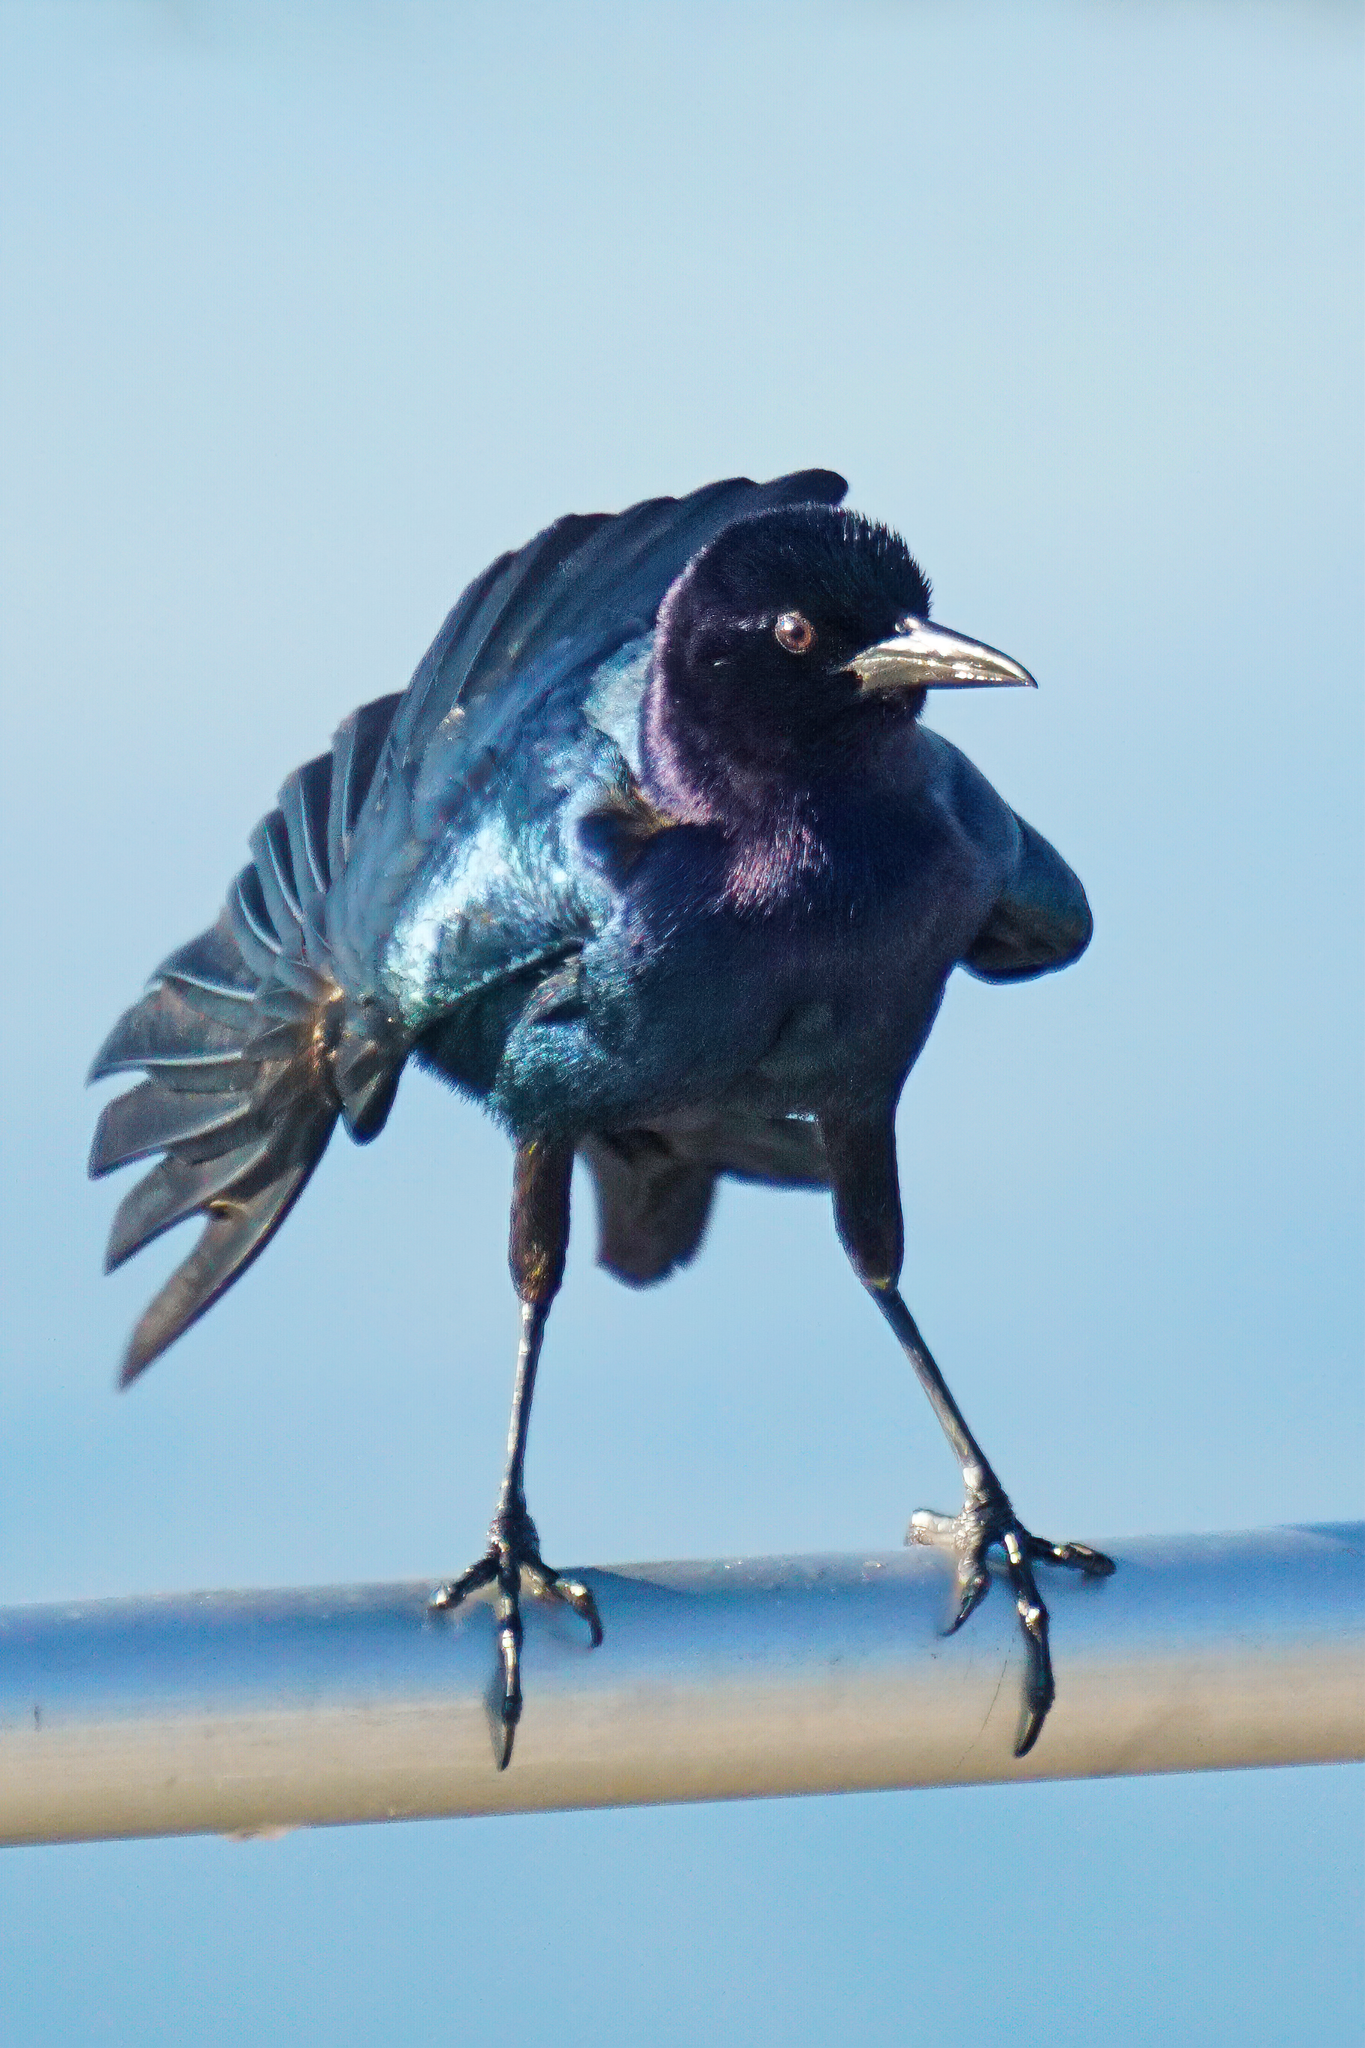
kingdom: Animalia
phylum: Chordata
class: Aves
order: Passeriformes
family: Icteridae
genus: Quiscalus
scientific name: Quiscalus major
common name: Boat-tailed grackle
